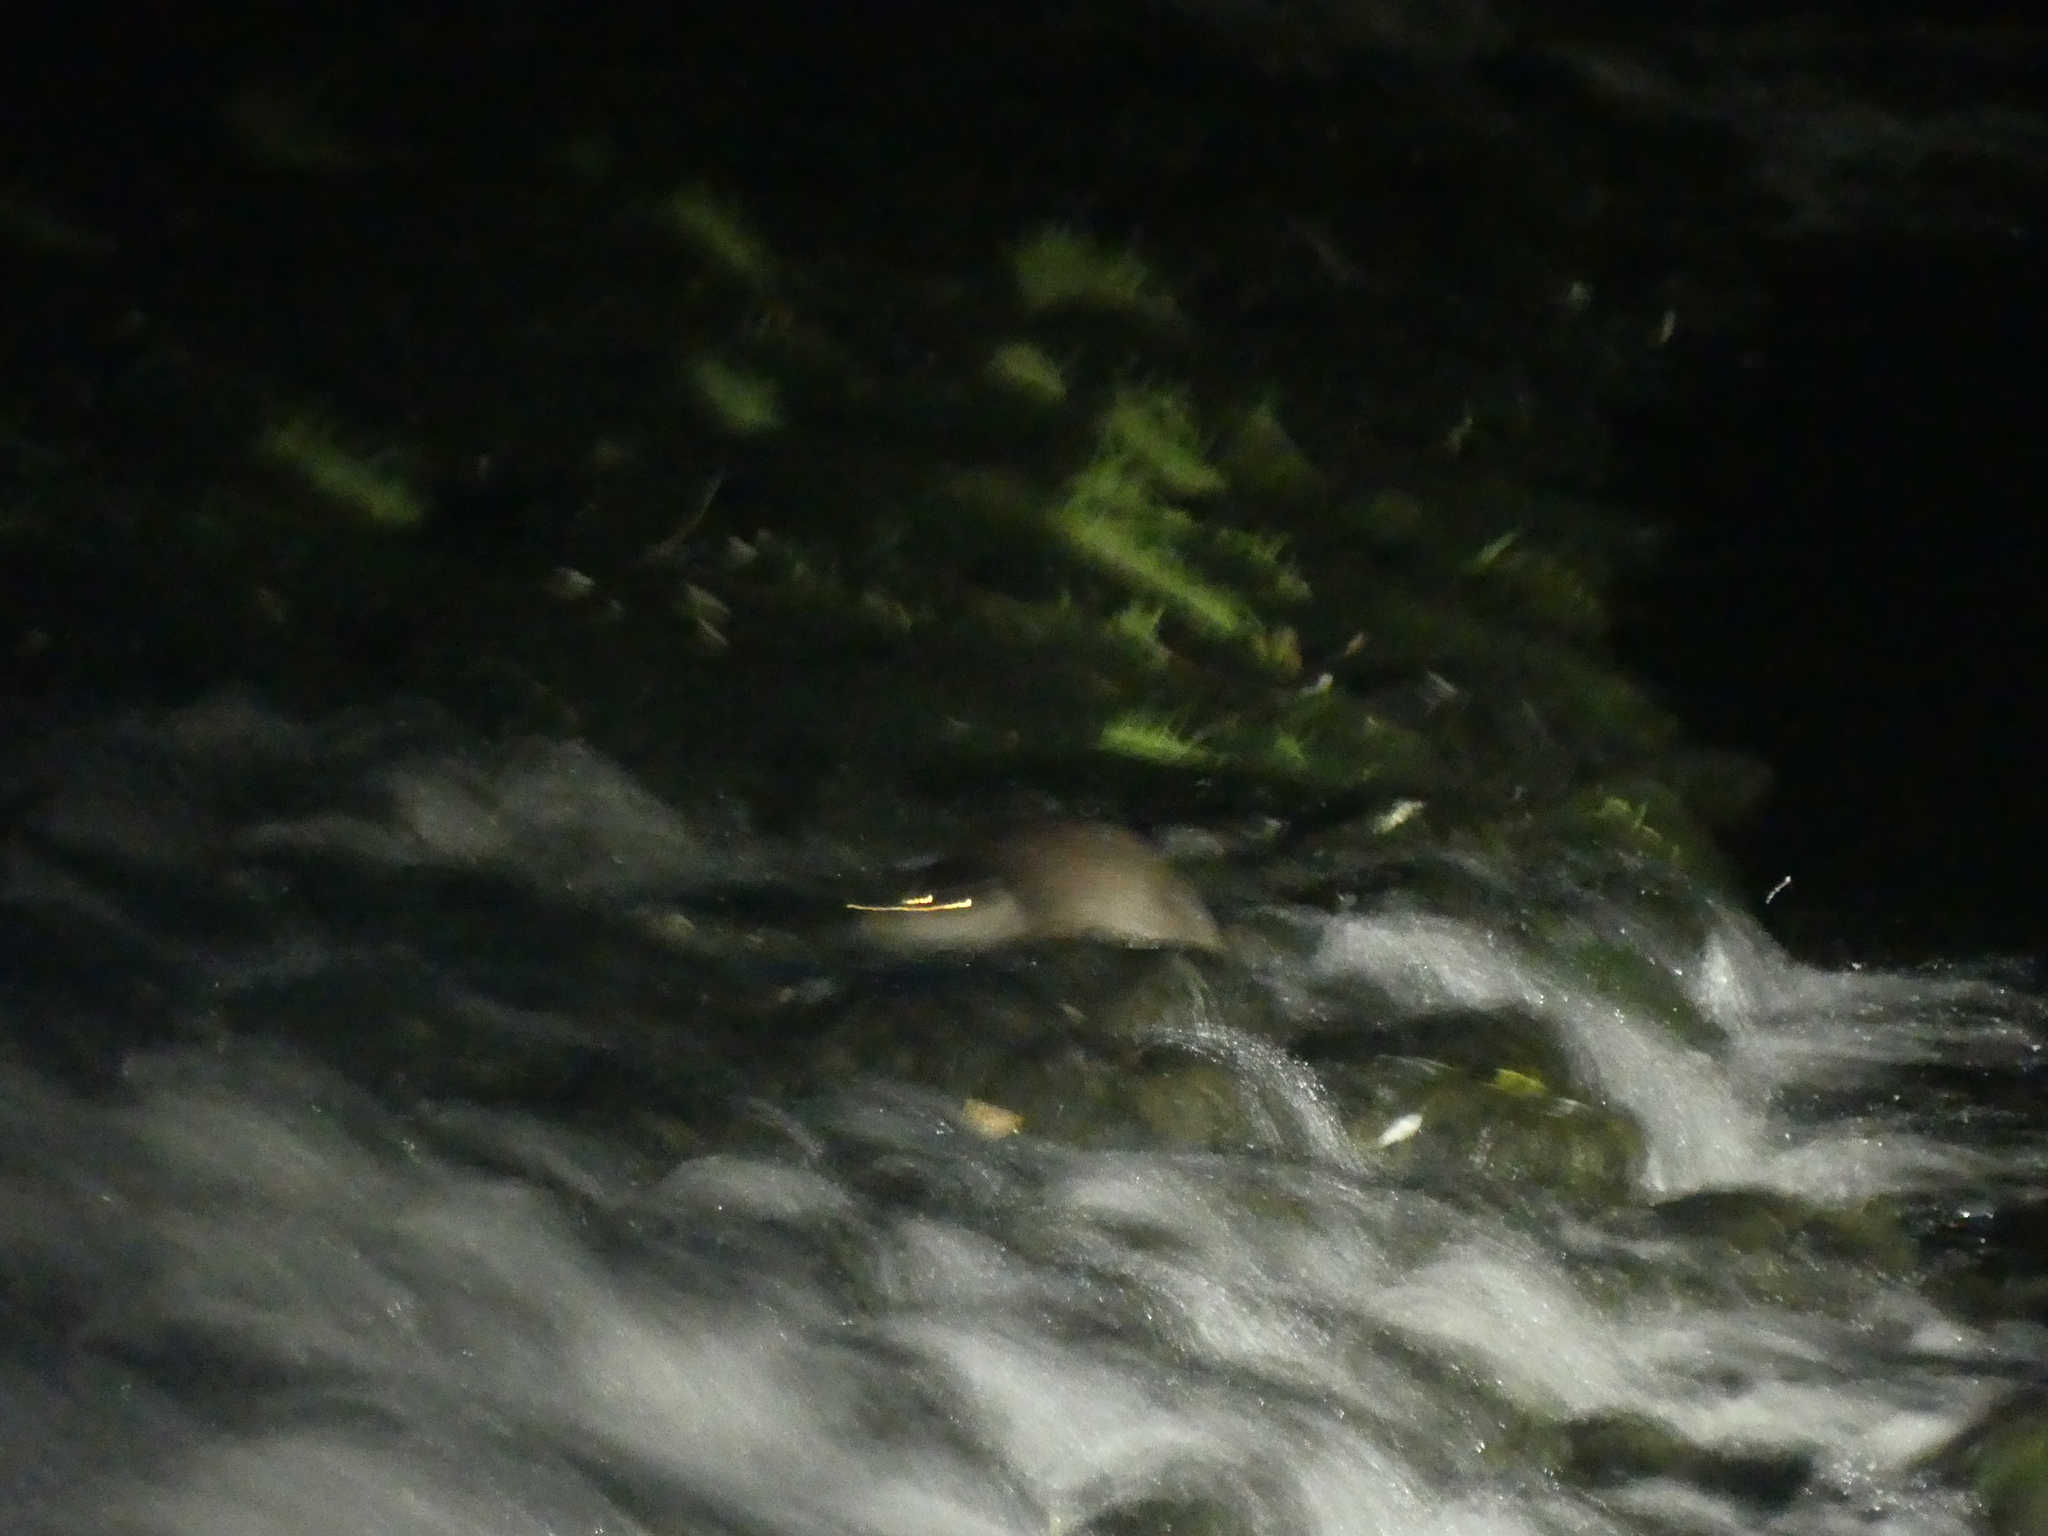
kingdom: Animalia
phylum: Chordata
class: Mammalia
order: Carnivora
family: Mustelidae
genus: Lutra
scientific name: Lutra lutra
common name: European otter
